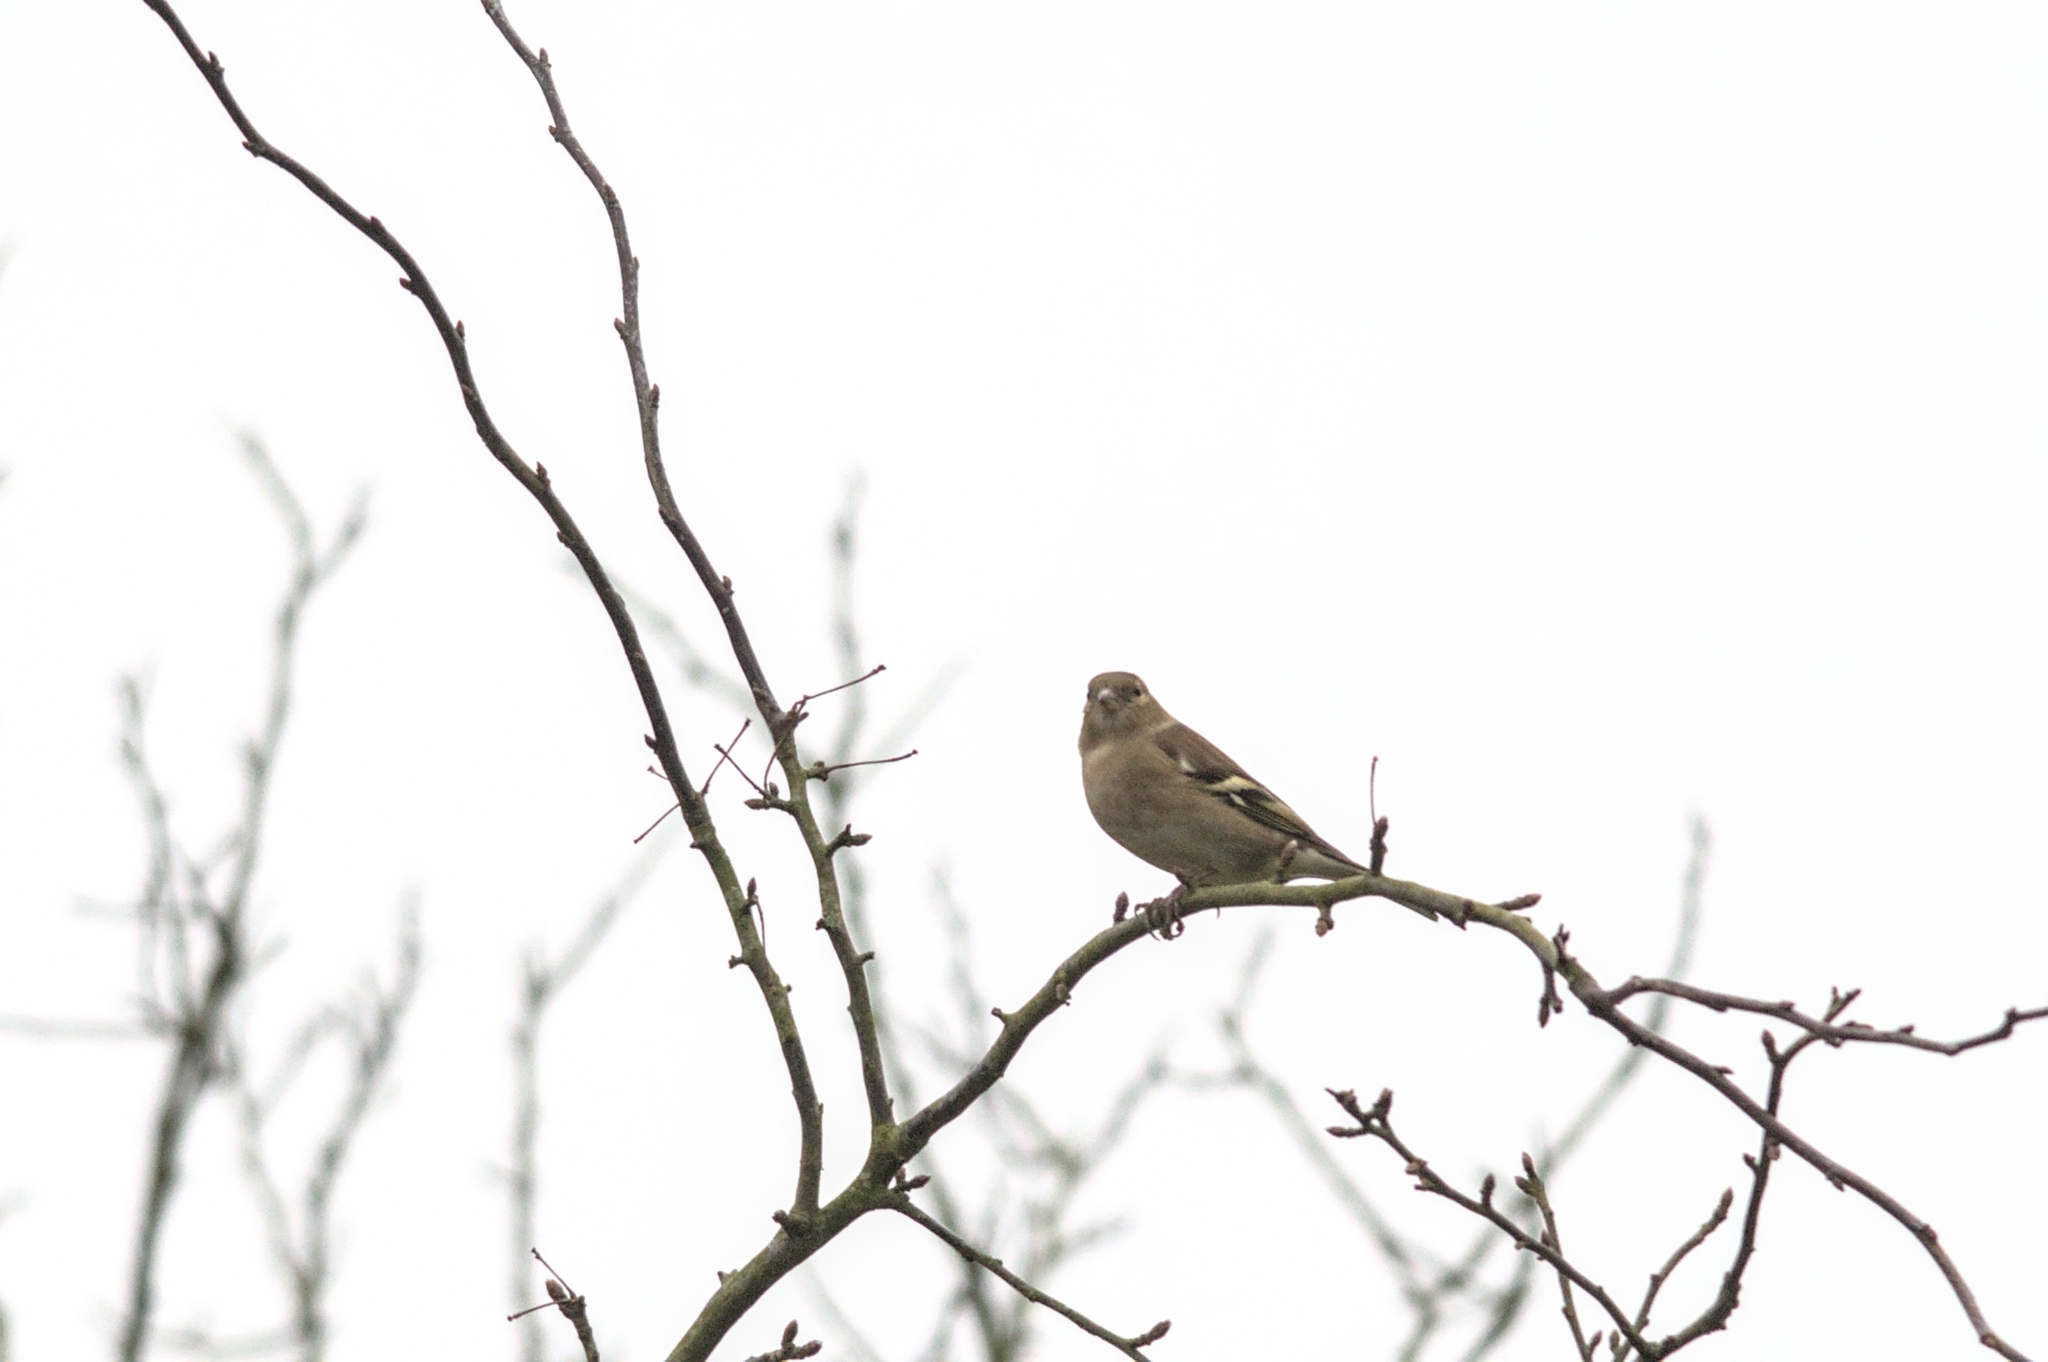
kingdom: Animalia
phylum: Chordata
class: Aves
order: Passeriformes
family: Fringillidae
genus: Fringilla
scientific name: Fringilla coelebs
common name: Common chaffinch
